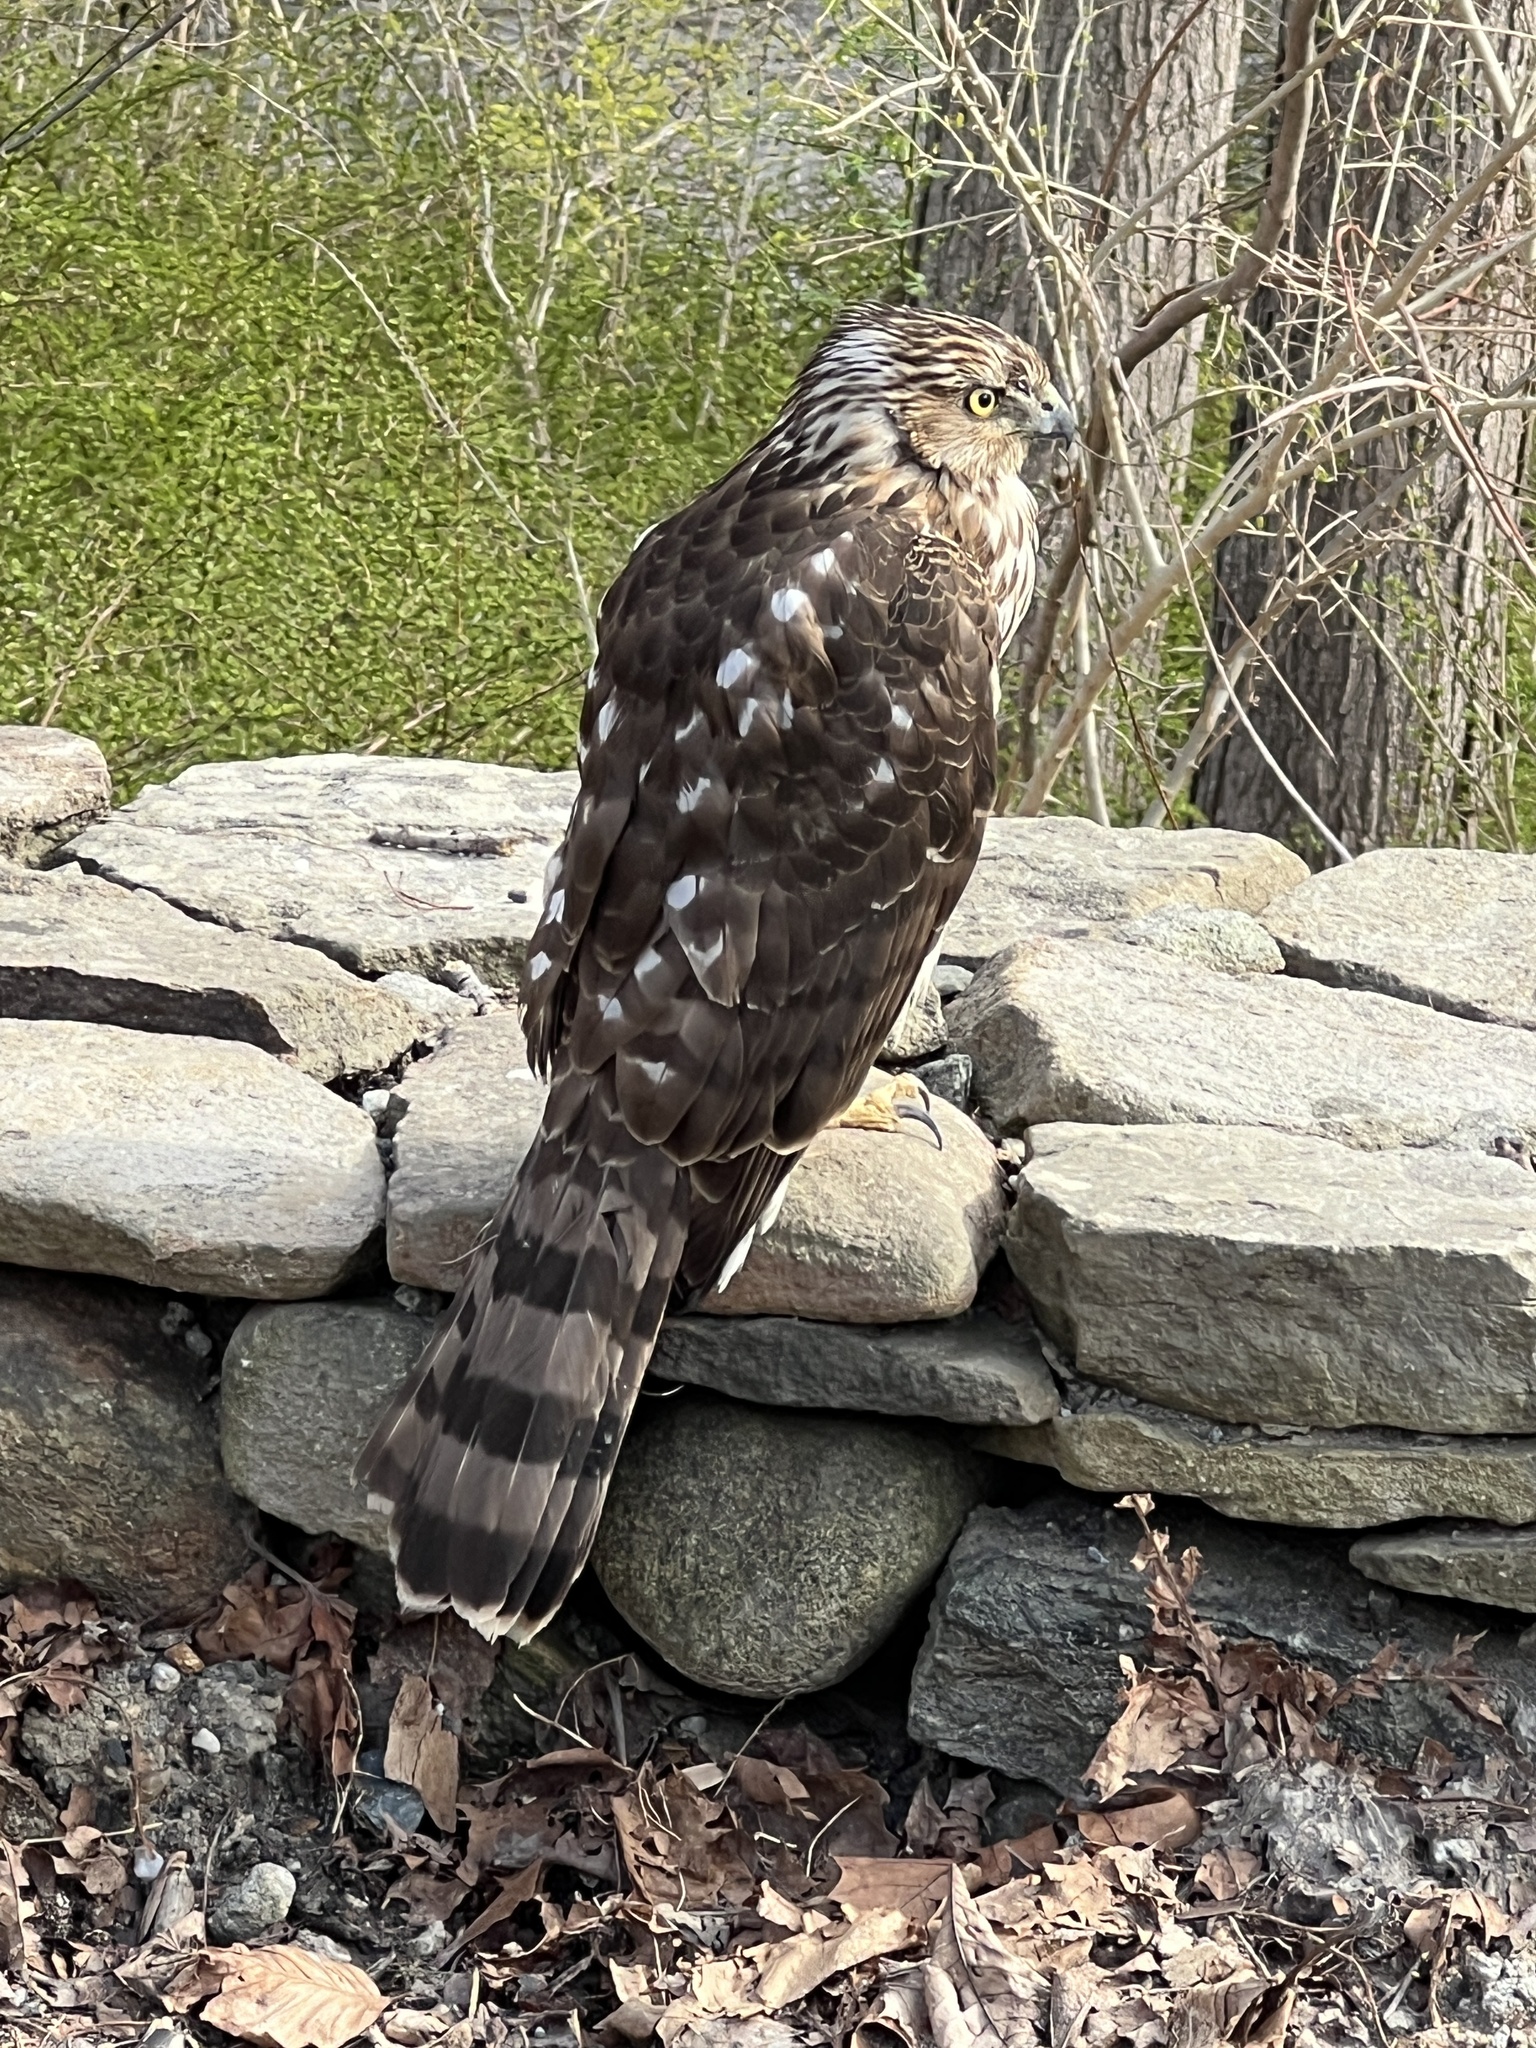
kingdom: Animalia
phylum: Chordata
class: Aves
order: Accipitriformes
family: Accipitridae
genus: Accipiter
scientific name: Accipiter cooperii
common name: Cooper's hawk
